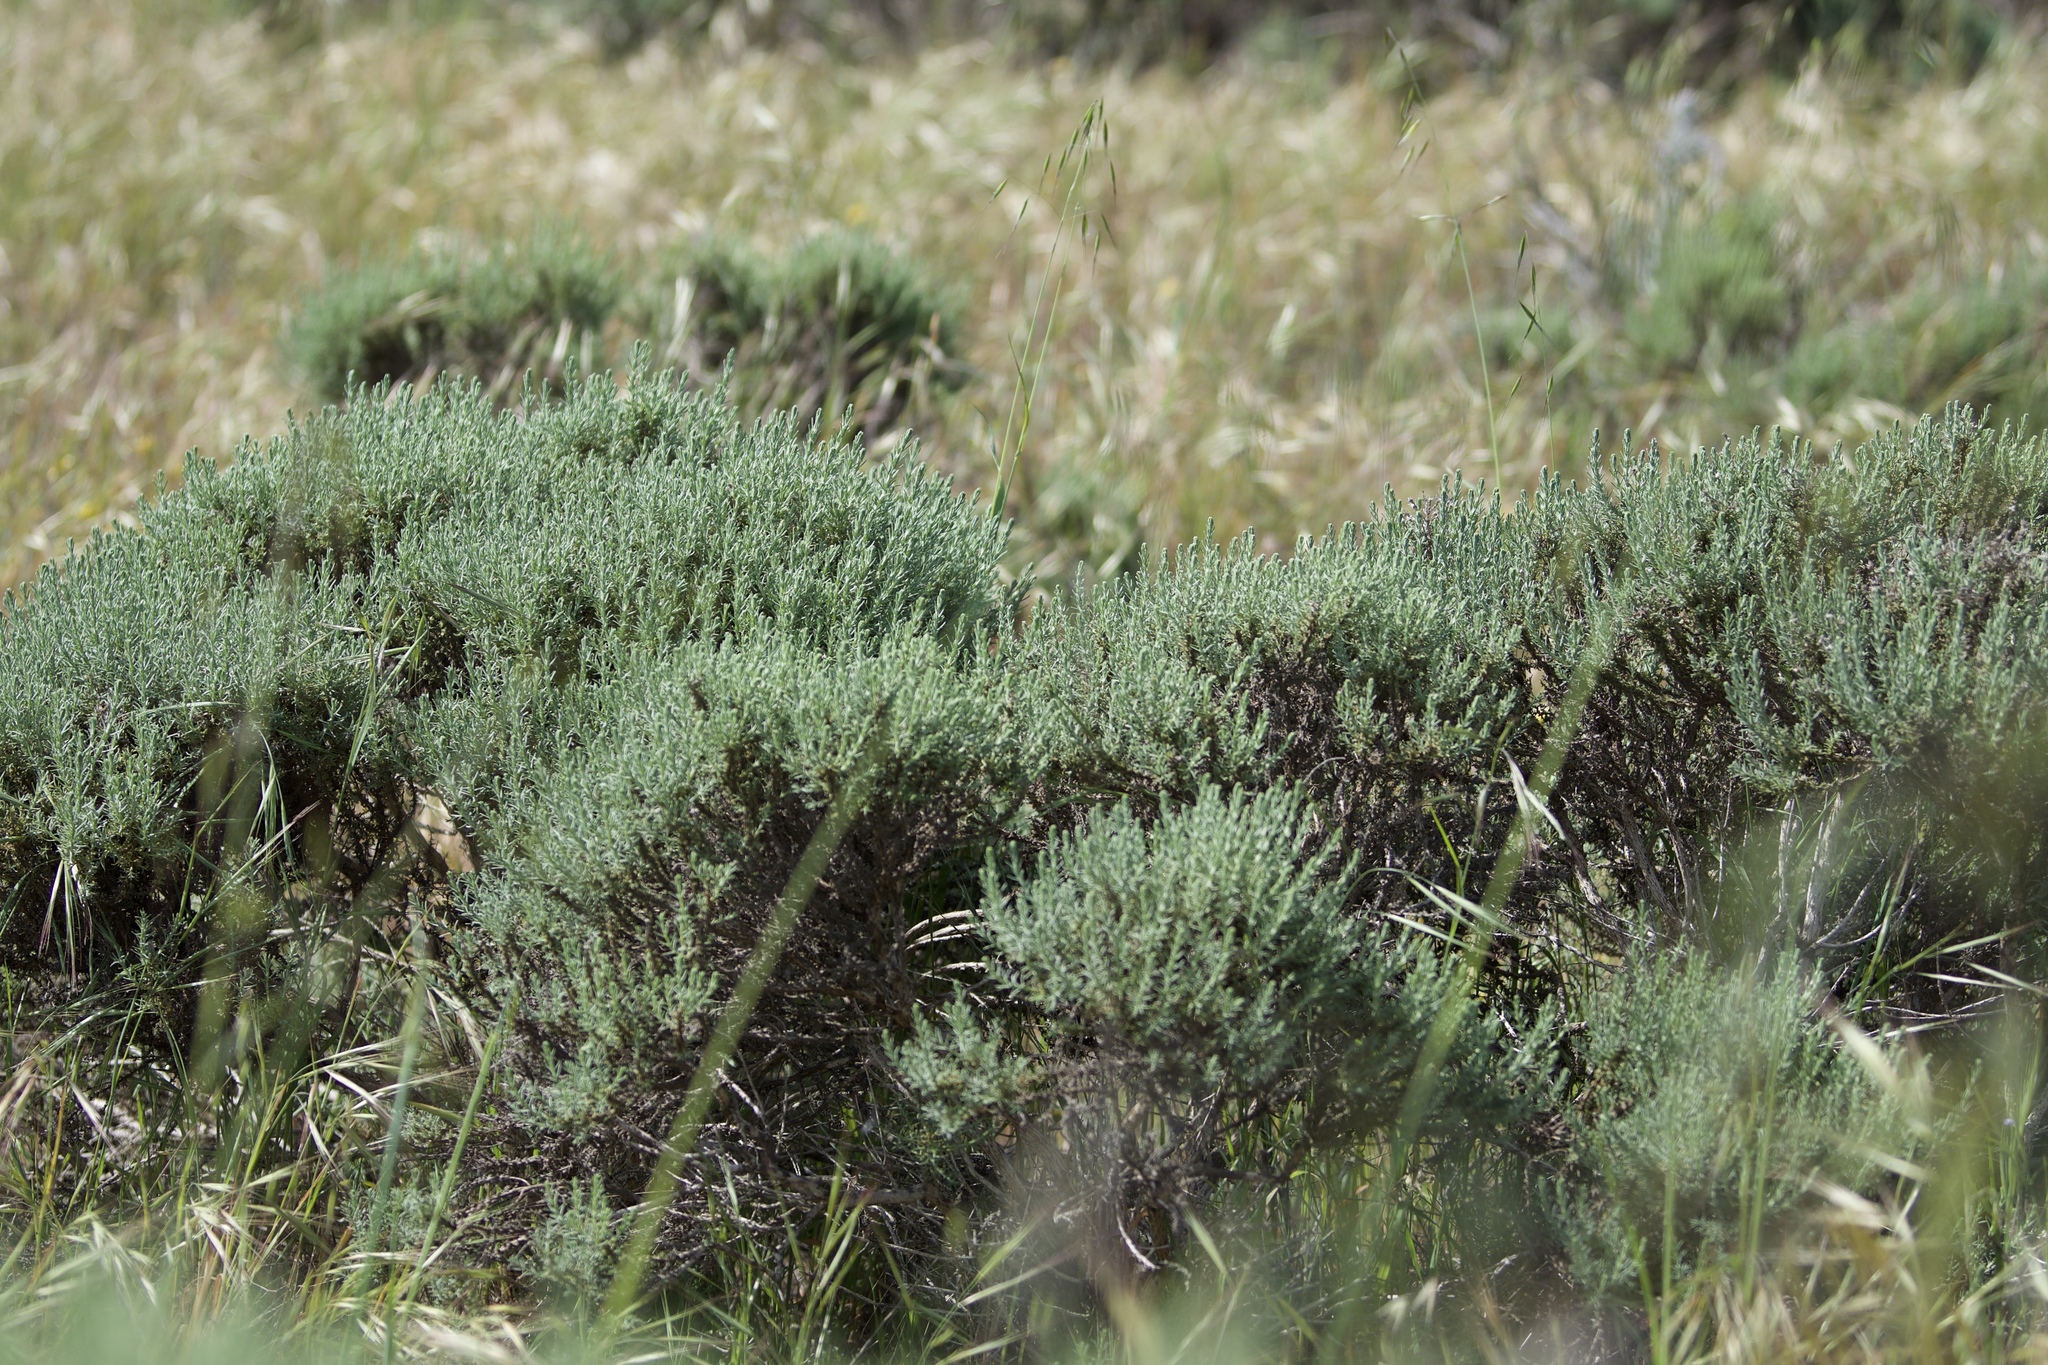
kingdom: Plantae
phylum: Tracheophyta
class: Magnoliopsida
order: Asterales
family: Asteraceae
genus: Ericameria
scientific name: Ericameria ericoides
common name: California goldenbush
